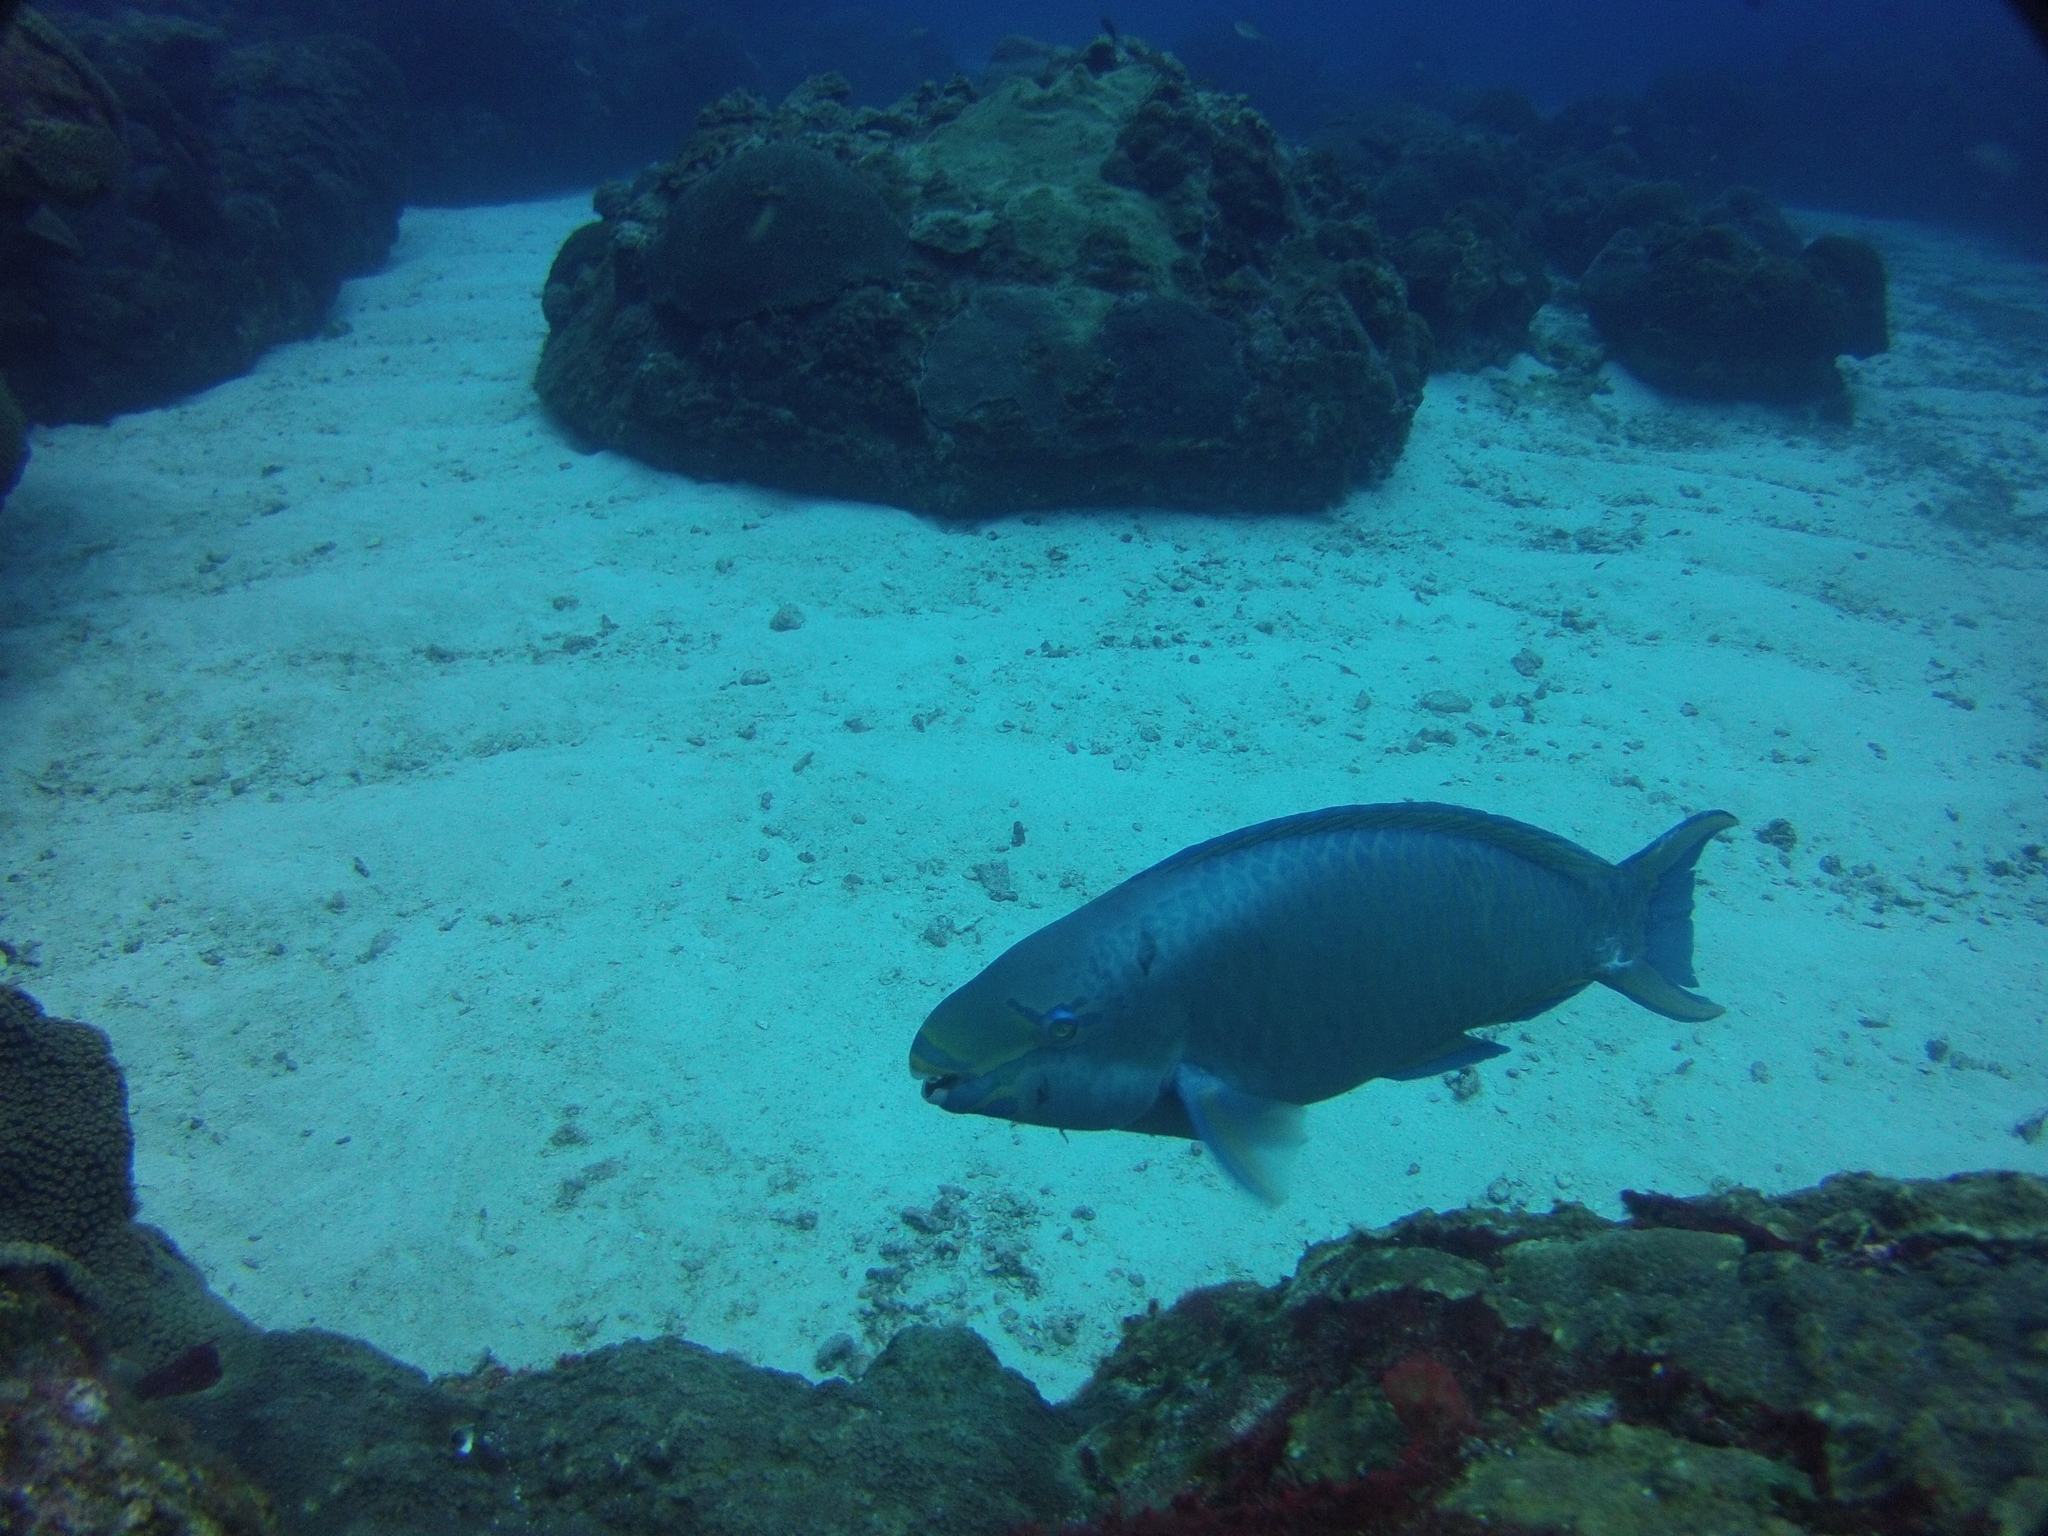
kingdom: Animalia
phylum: Chordata
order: Perciformes
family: Scaridae
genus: Scarus
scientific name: Scarus vetula
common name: Queen parrotfish
